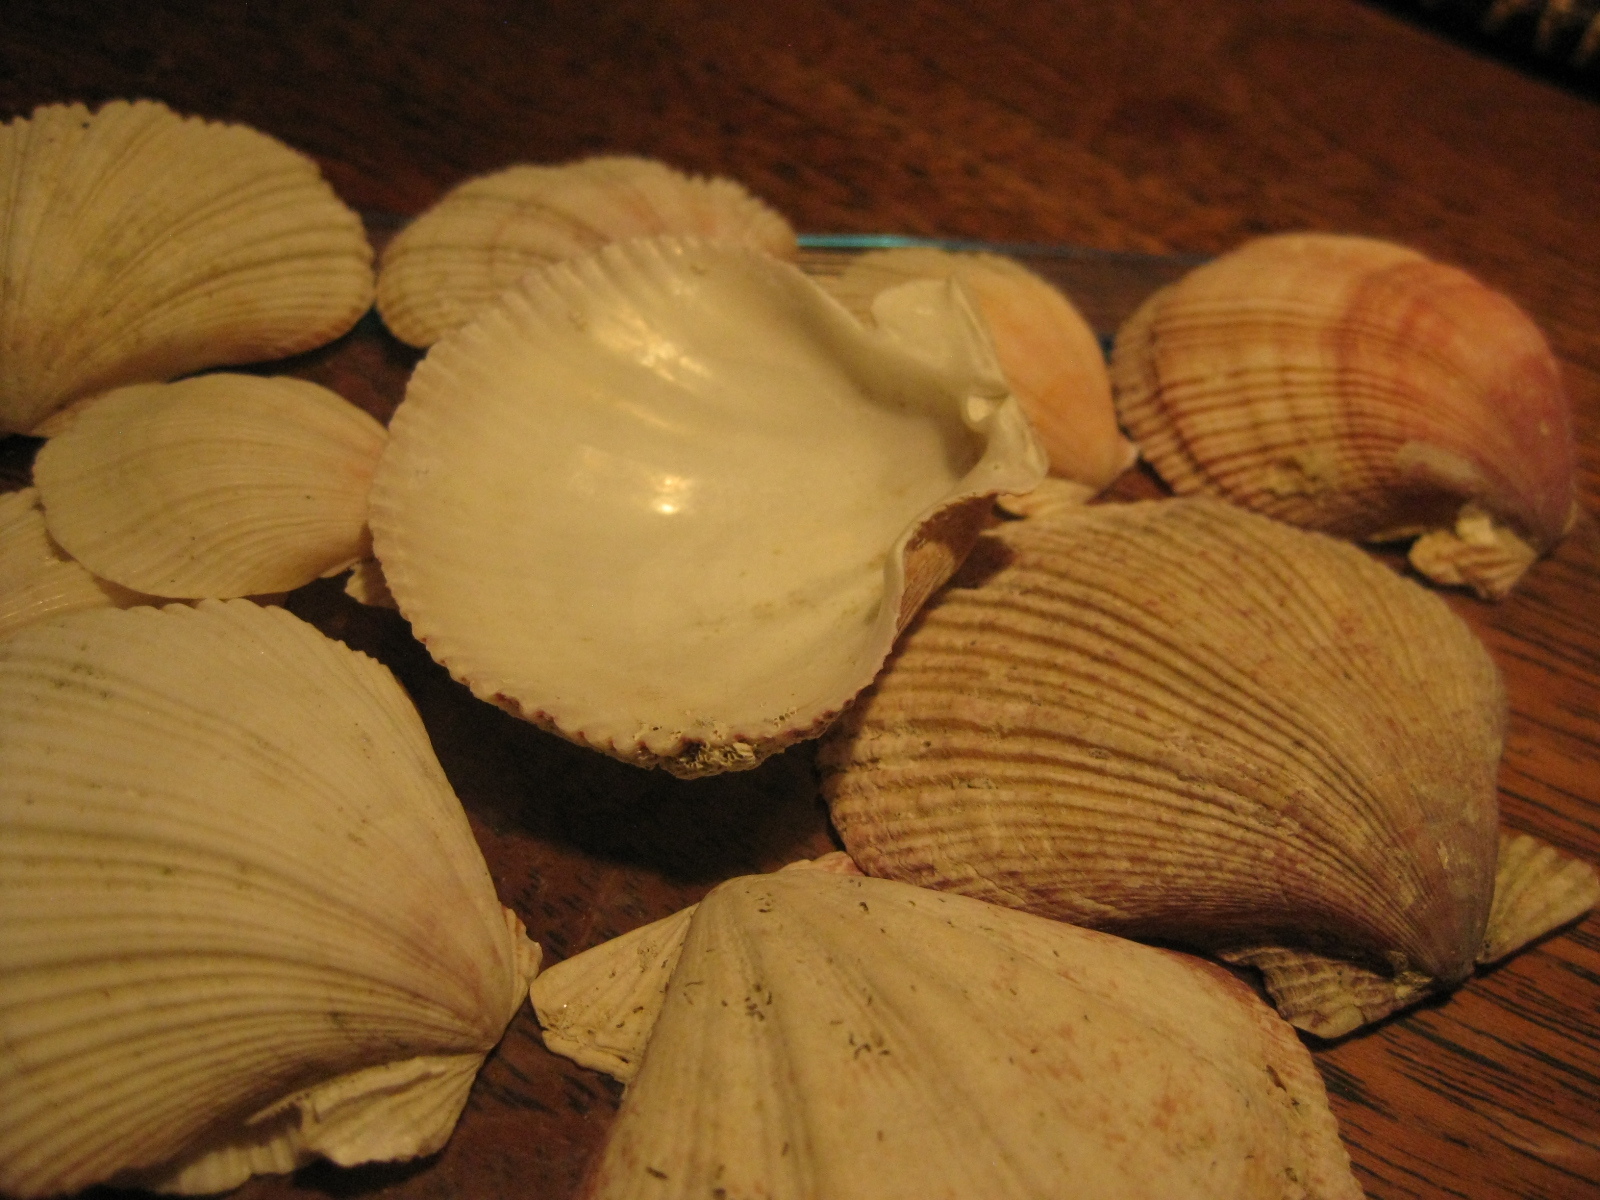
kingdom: Animalia
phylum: Mollusca
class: Bivalvia
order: Pectinida
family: Pectinidae
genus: Mesopeplum
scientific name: Mesopeplum convexum
